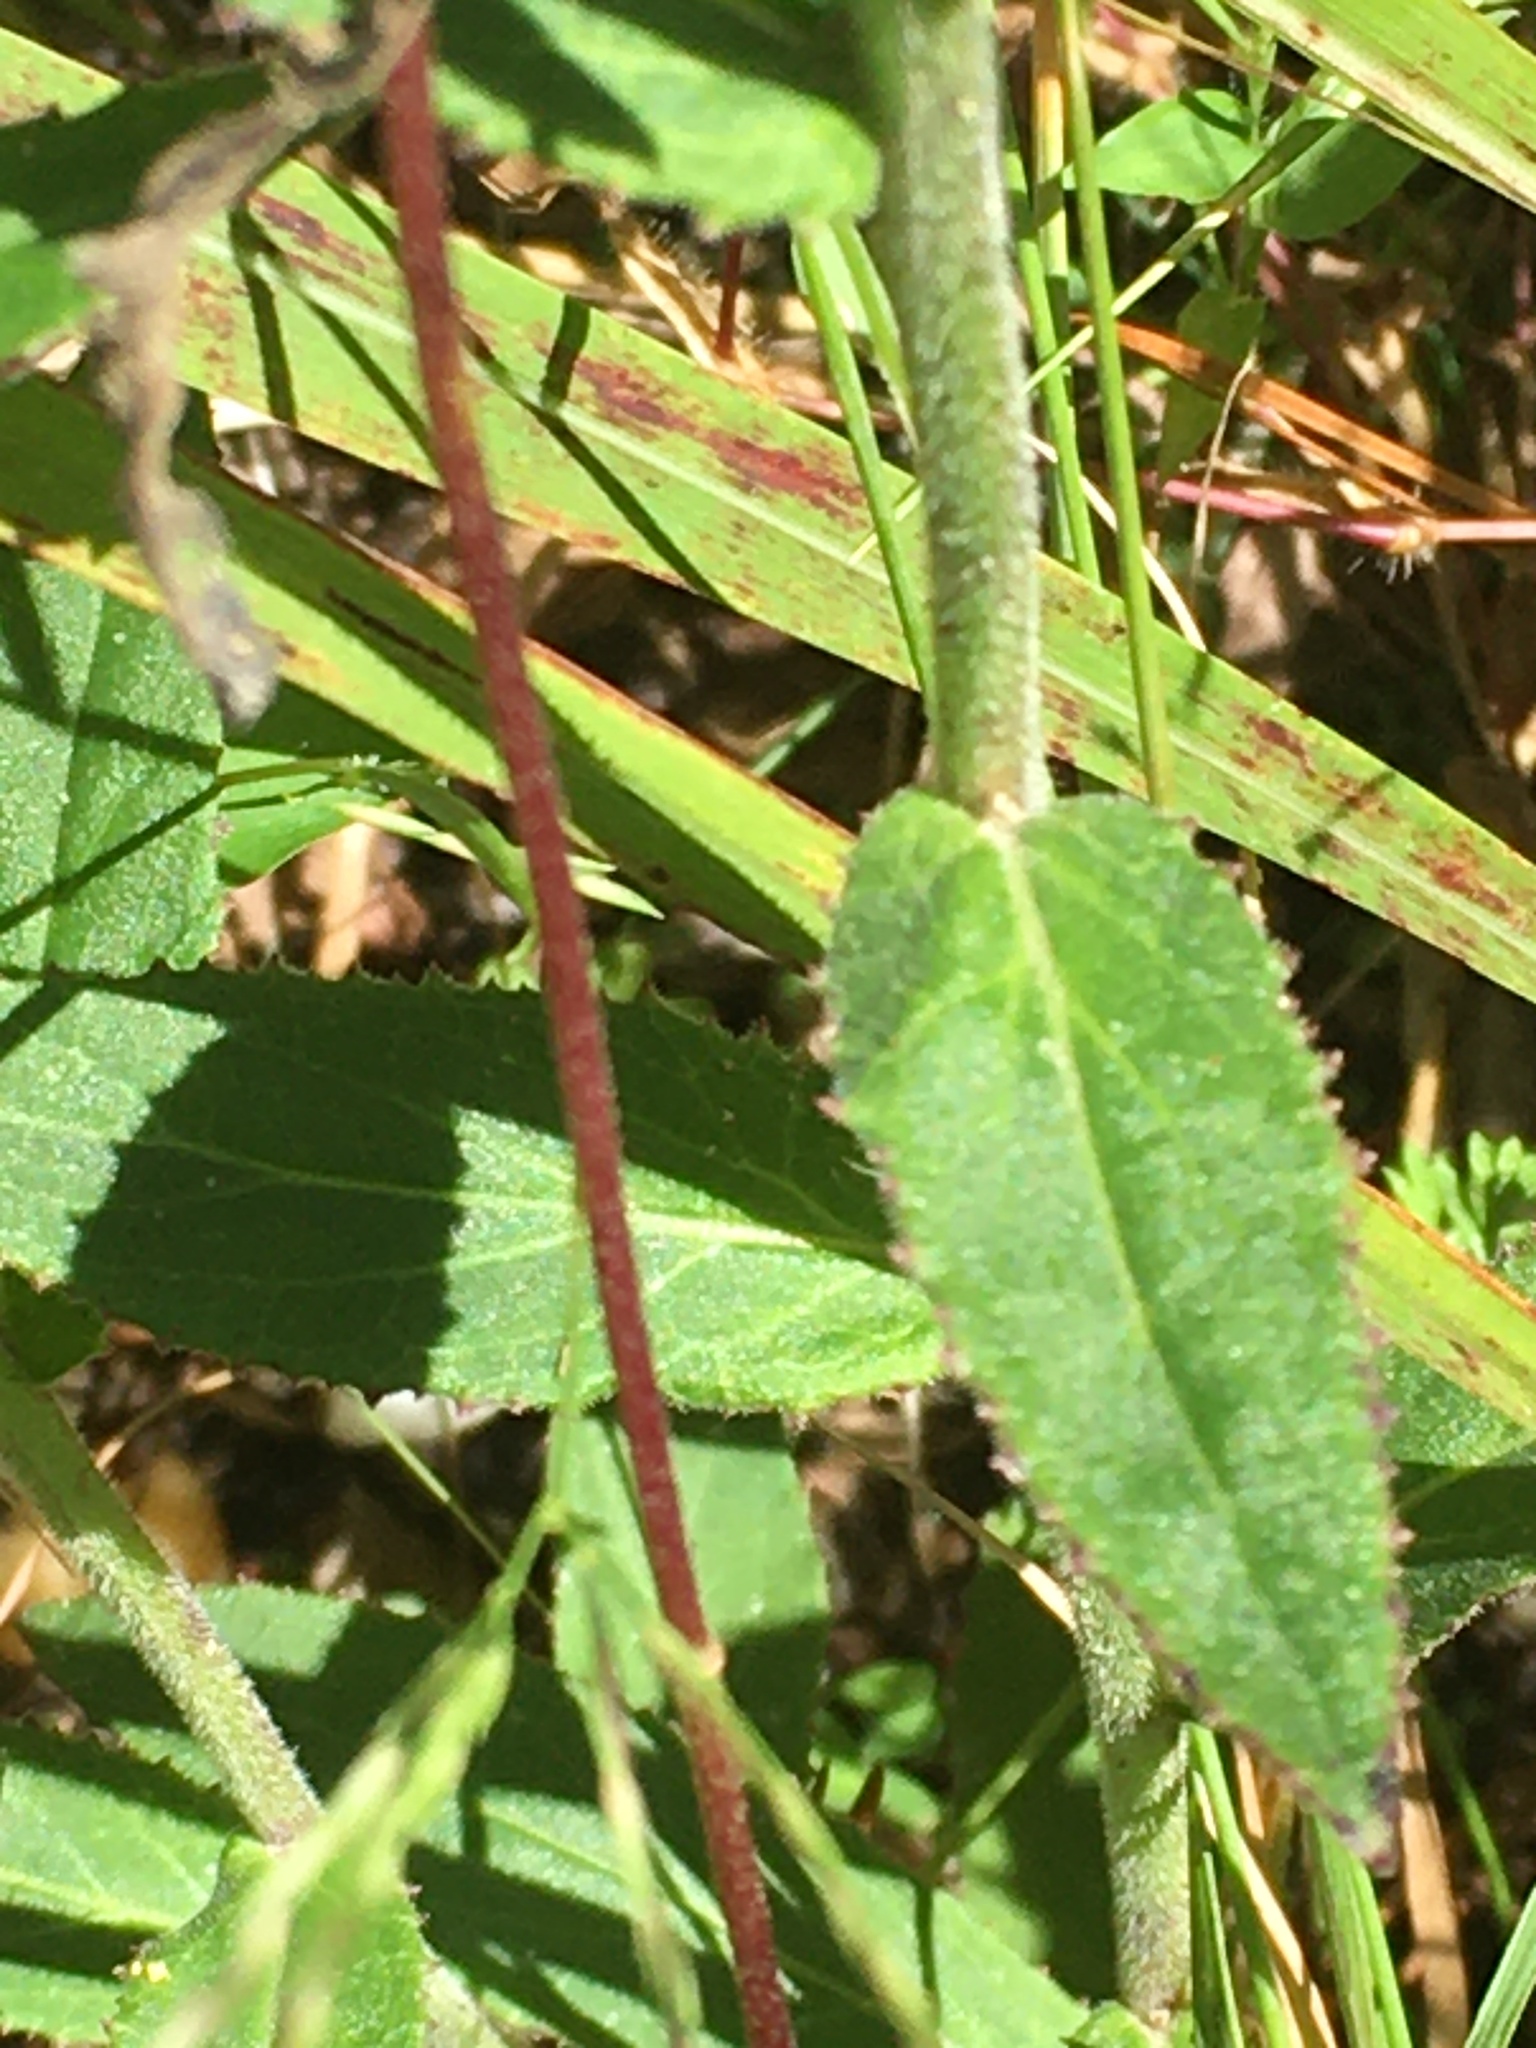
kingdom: Plantae
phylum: Tracheophyta
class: Magnoliopsida
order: Asterales
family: Campanulaceae
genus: Lobelia
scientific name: Lobelia puberula
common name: Purple dewdrop
